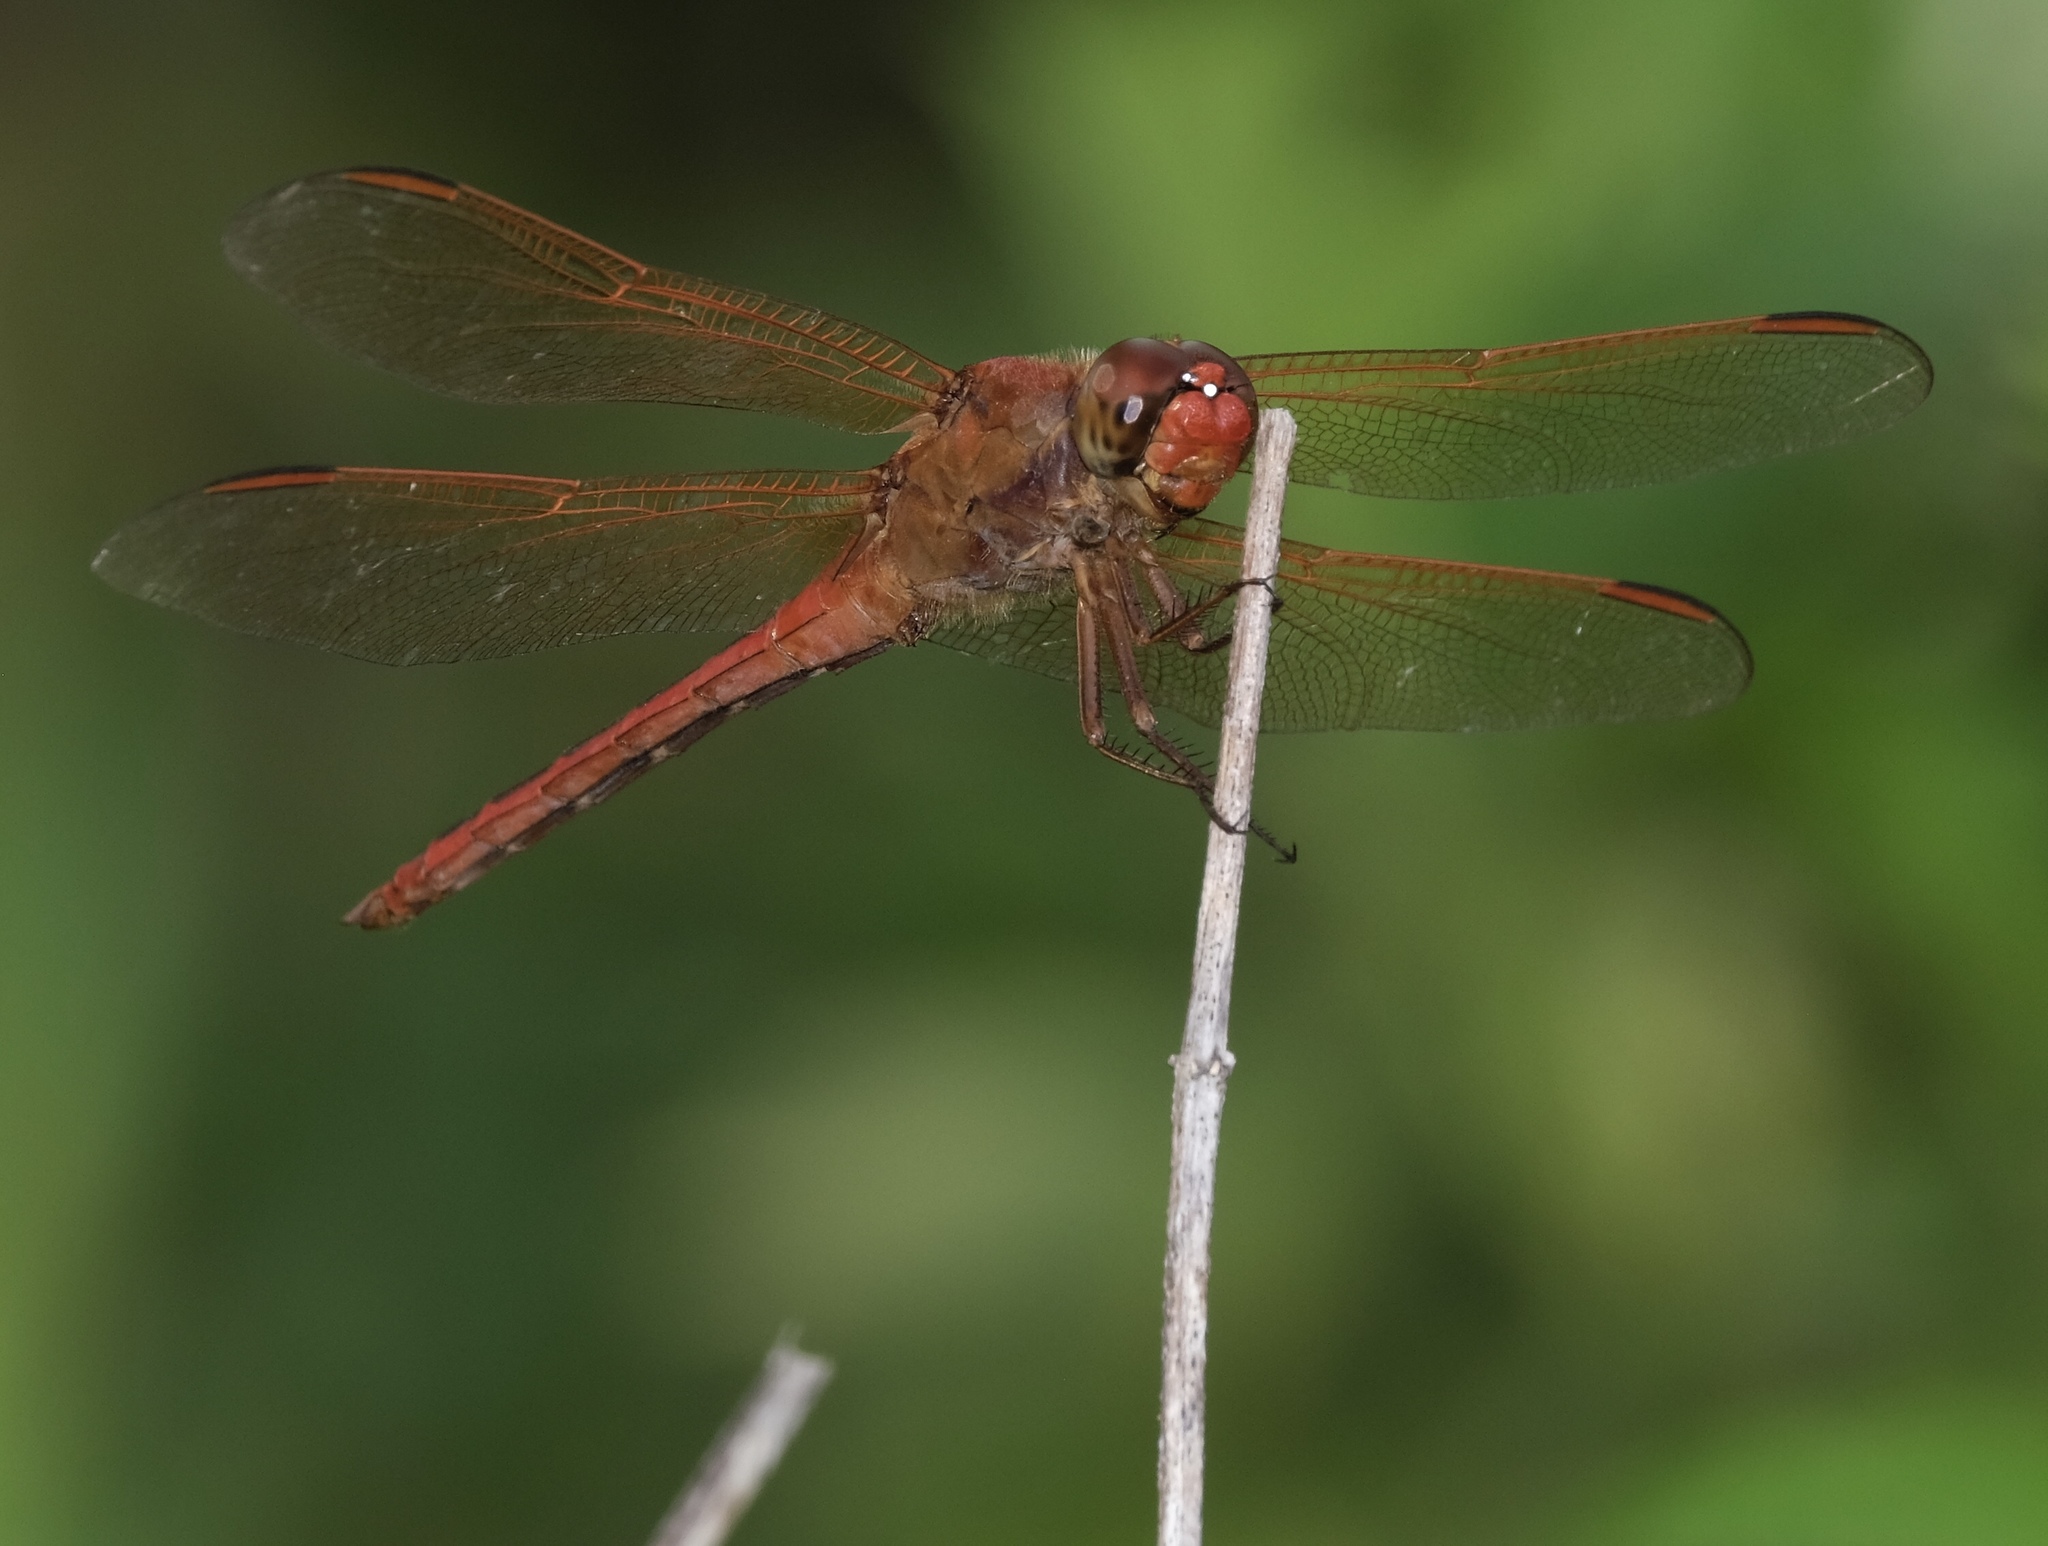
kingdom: Animalia
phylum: Arthropoda
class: Insecta
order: Odonata
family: Libellulidae
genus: Libellula
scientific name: Libellula needhami
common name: Needham's skimmer
